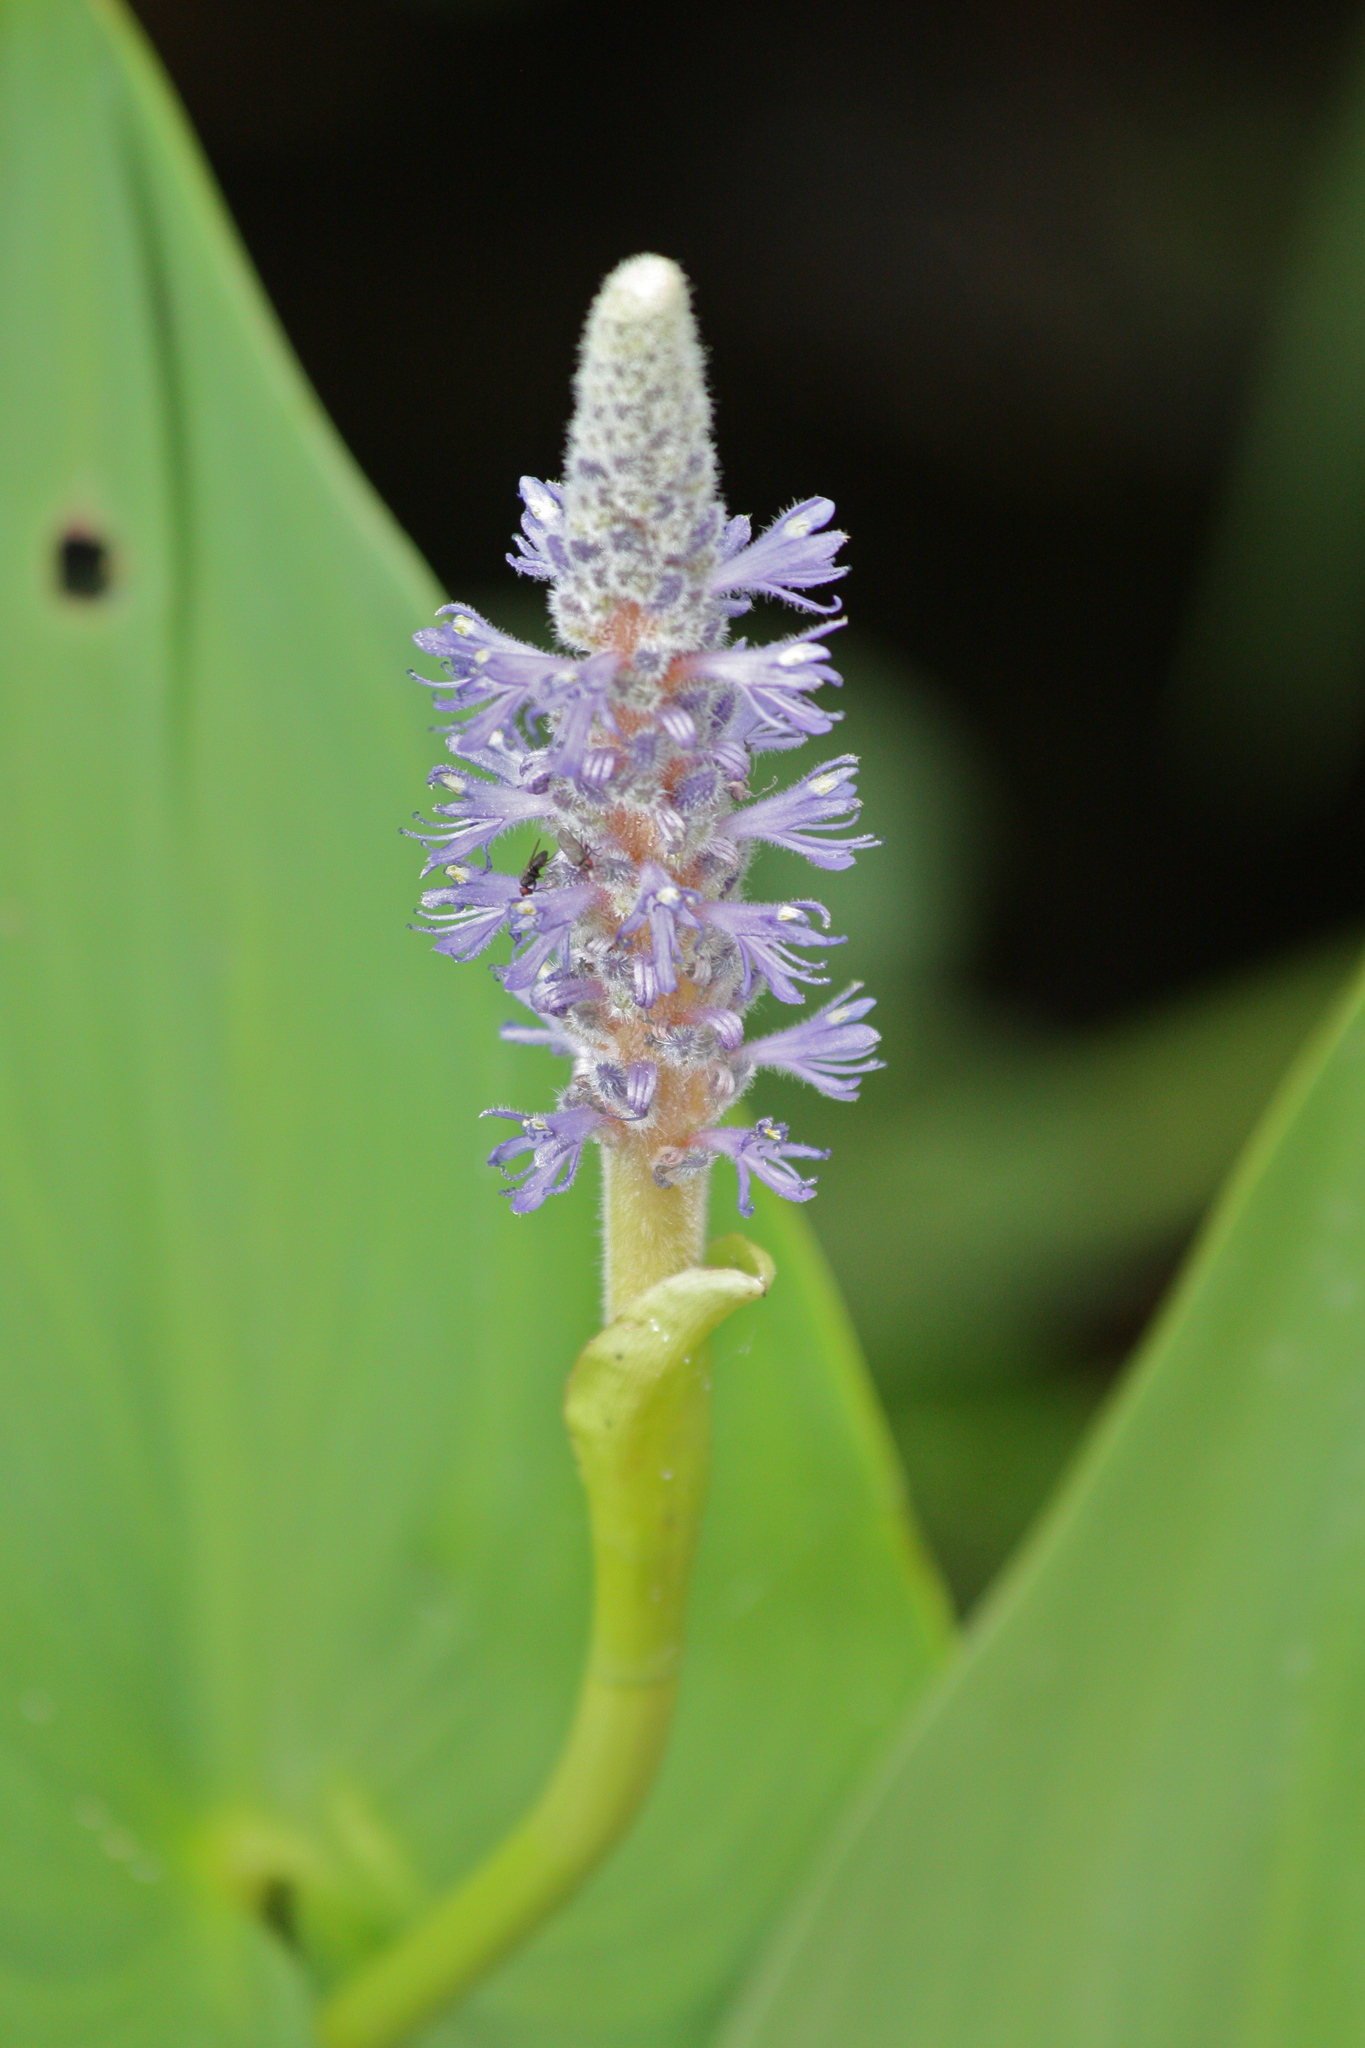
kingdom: Plantae
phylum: Tracheophyta
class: Liliopsida
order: Commelinales
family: Pontederiaceae
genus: Pontederia
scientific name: Pontederia cordata
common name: Pickerelweed
